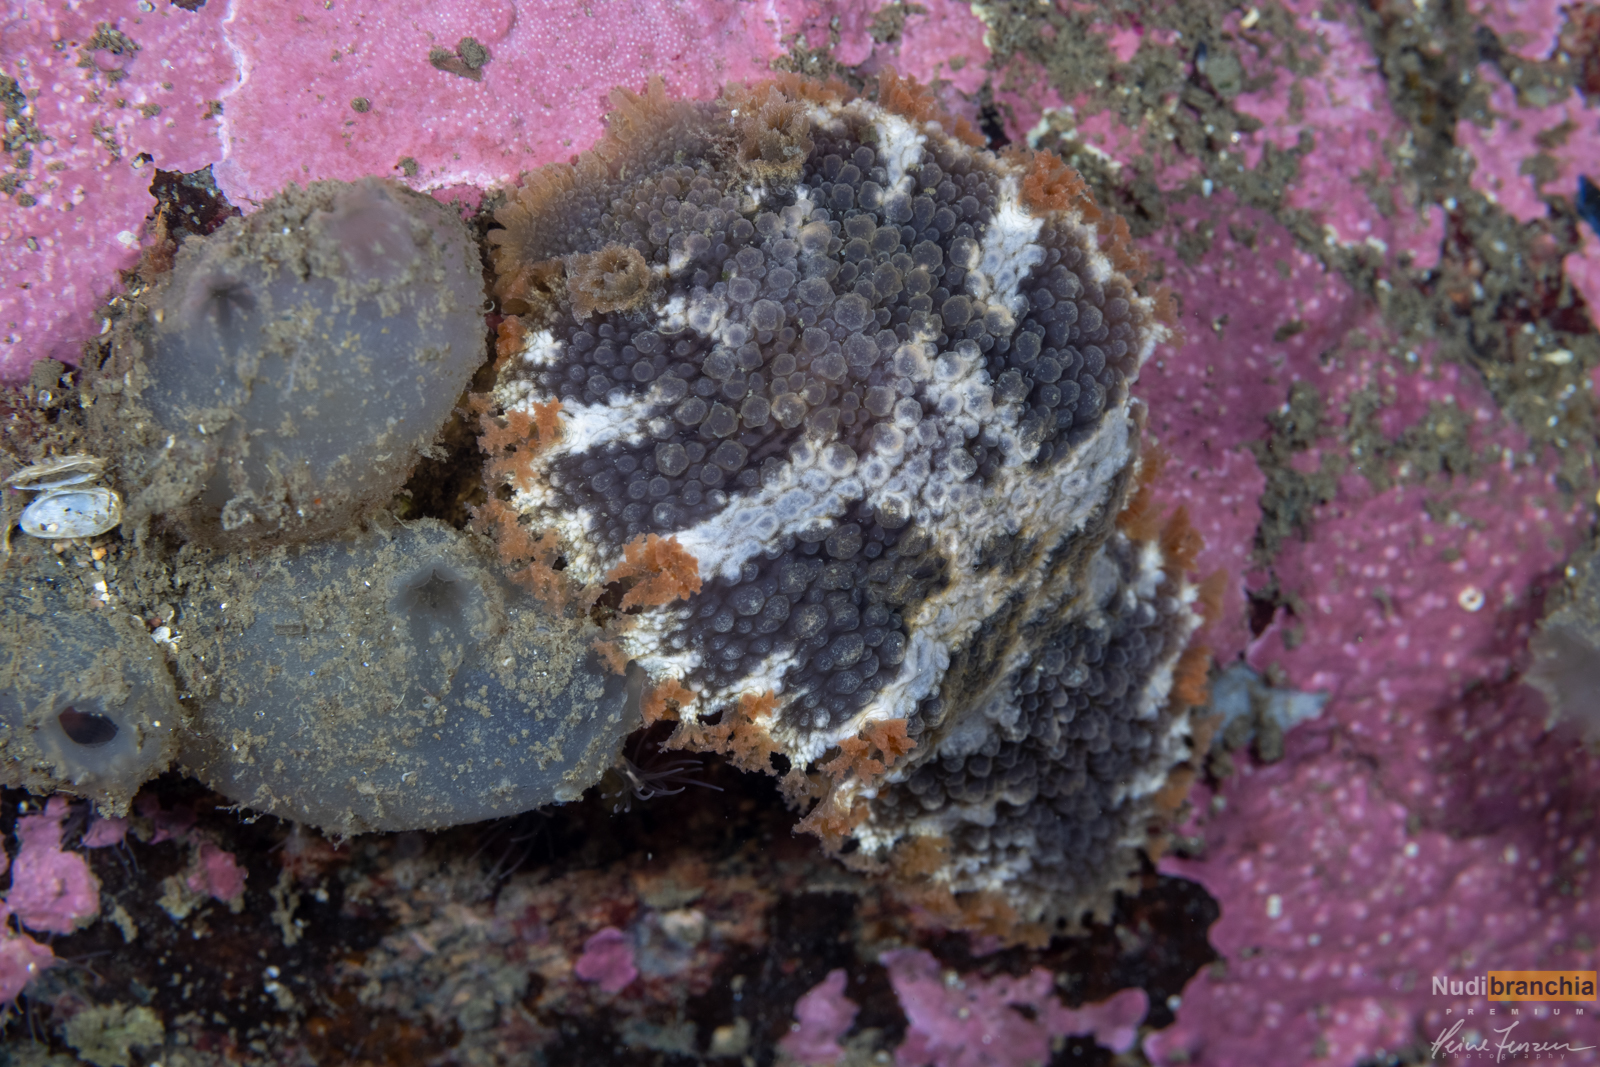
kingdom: Animalia
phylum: Mollusca
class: Gastropoda
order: Nudibranchia
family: Tritoniidae
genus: Tritonia
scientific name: Tritonia hombergii
